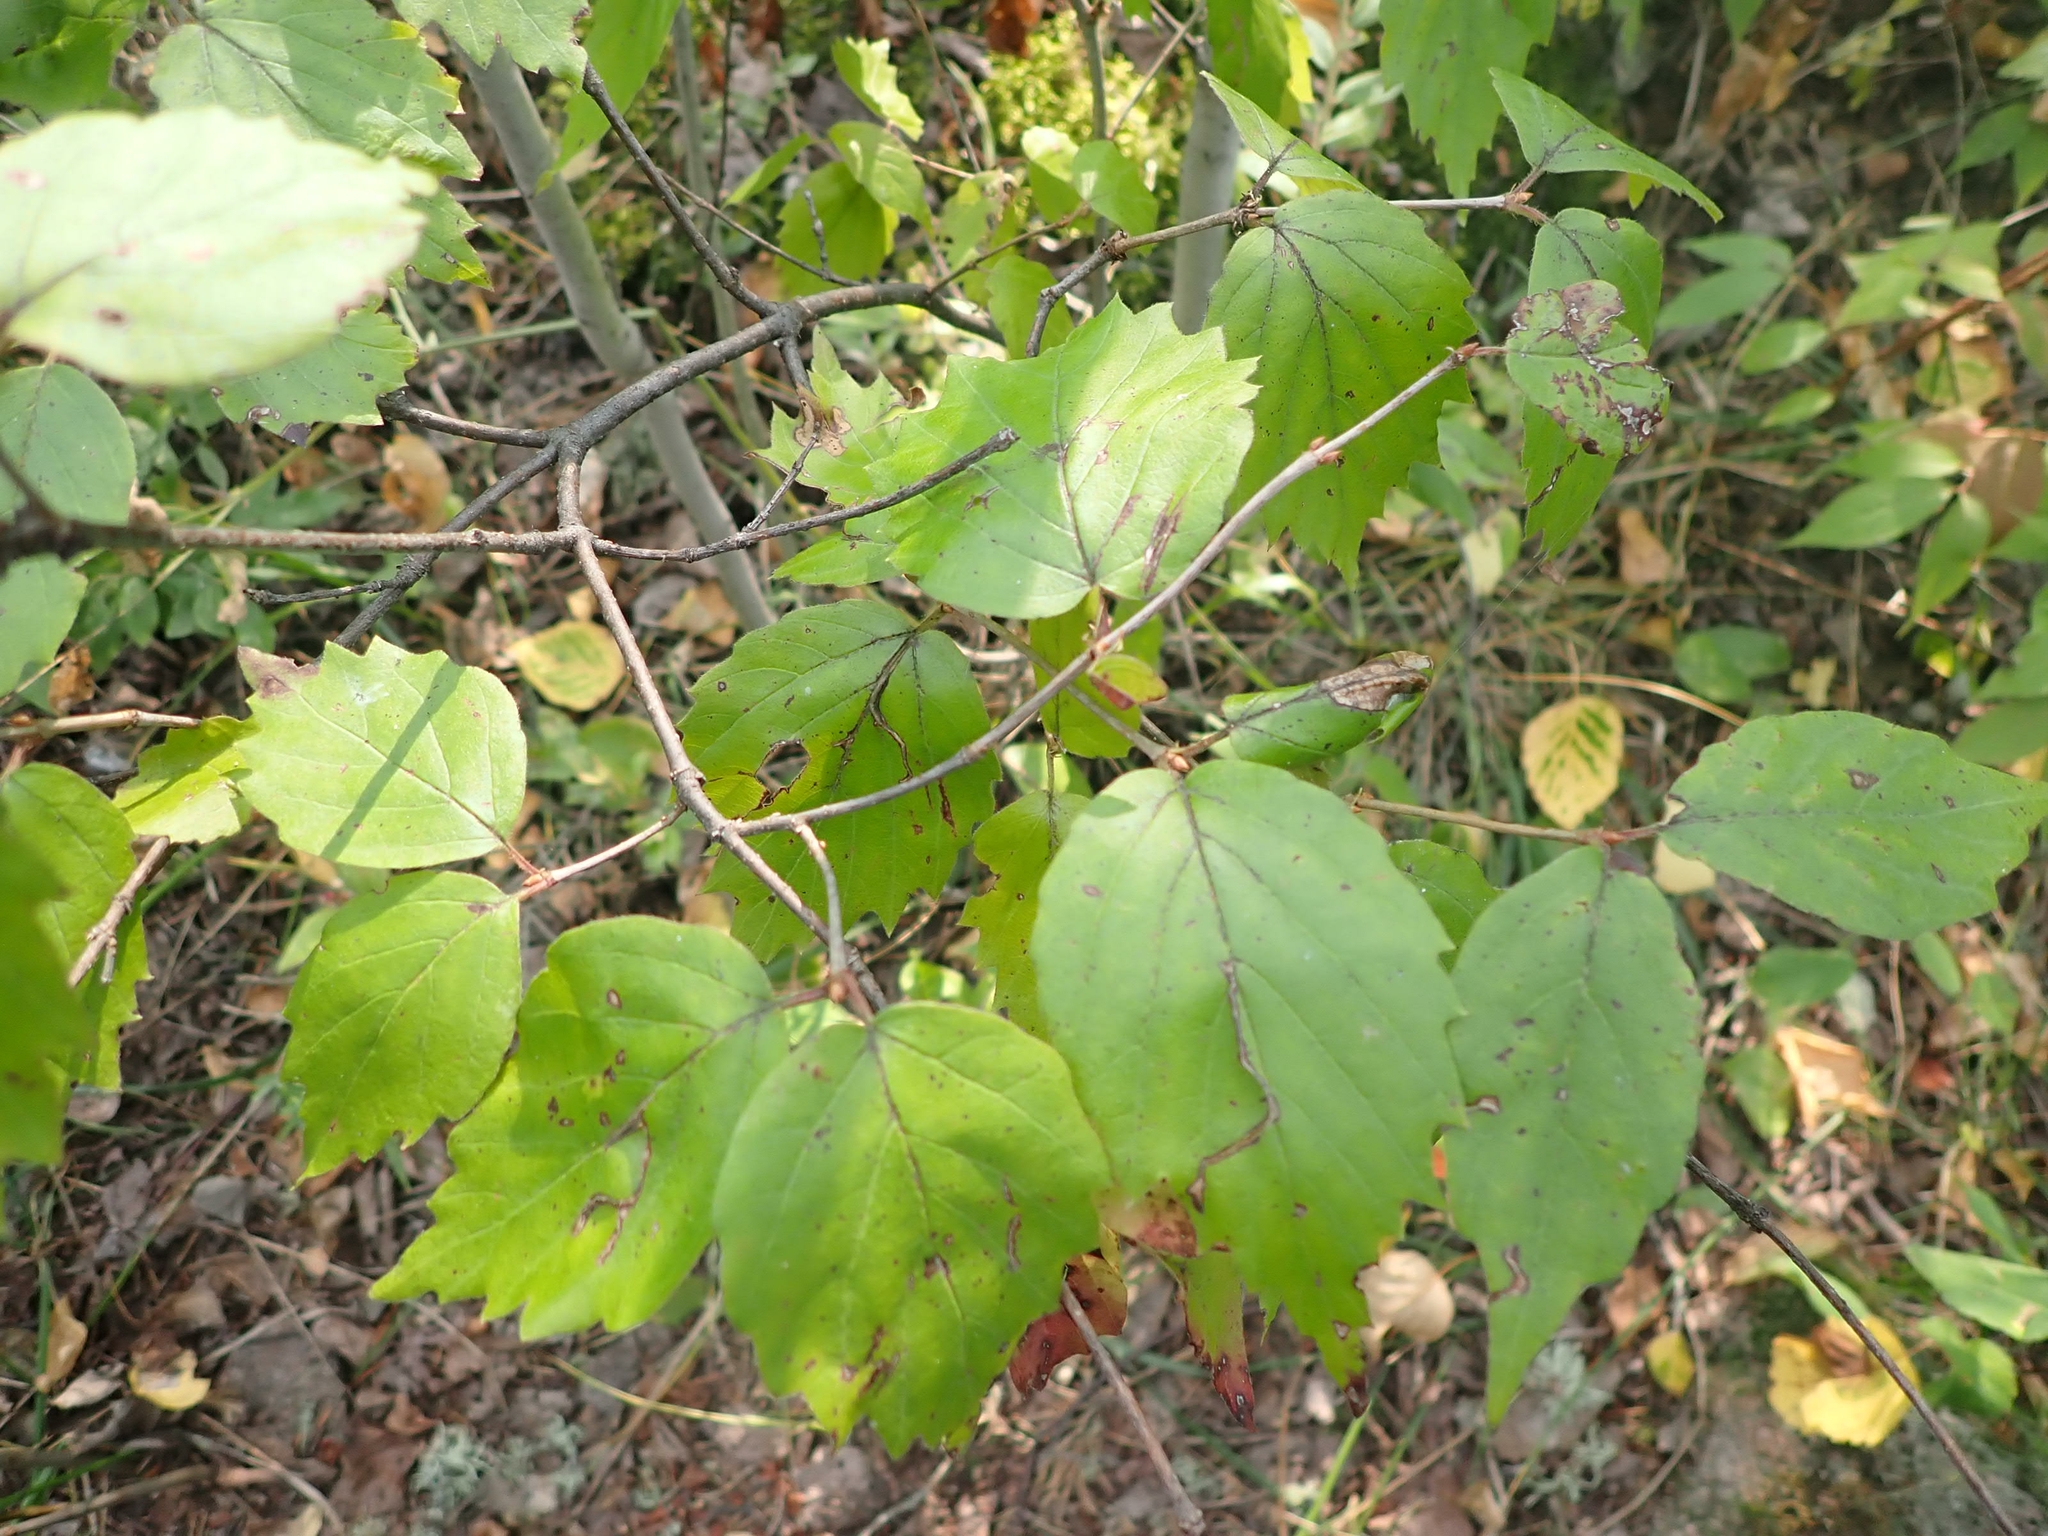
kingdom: Plantae
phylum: Tracheophyta
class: Magnoliopsida
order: Dipsacales
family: Viburnaceae
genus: Viburnum
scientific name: Viburnum rafinesqueanum
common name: Downy arrow-wood
